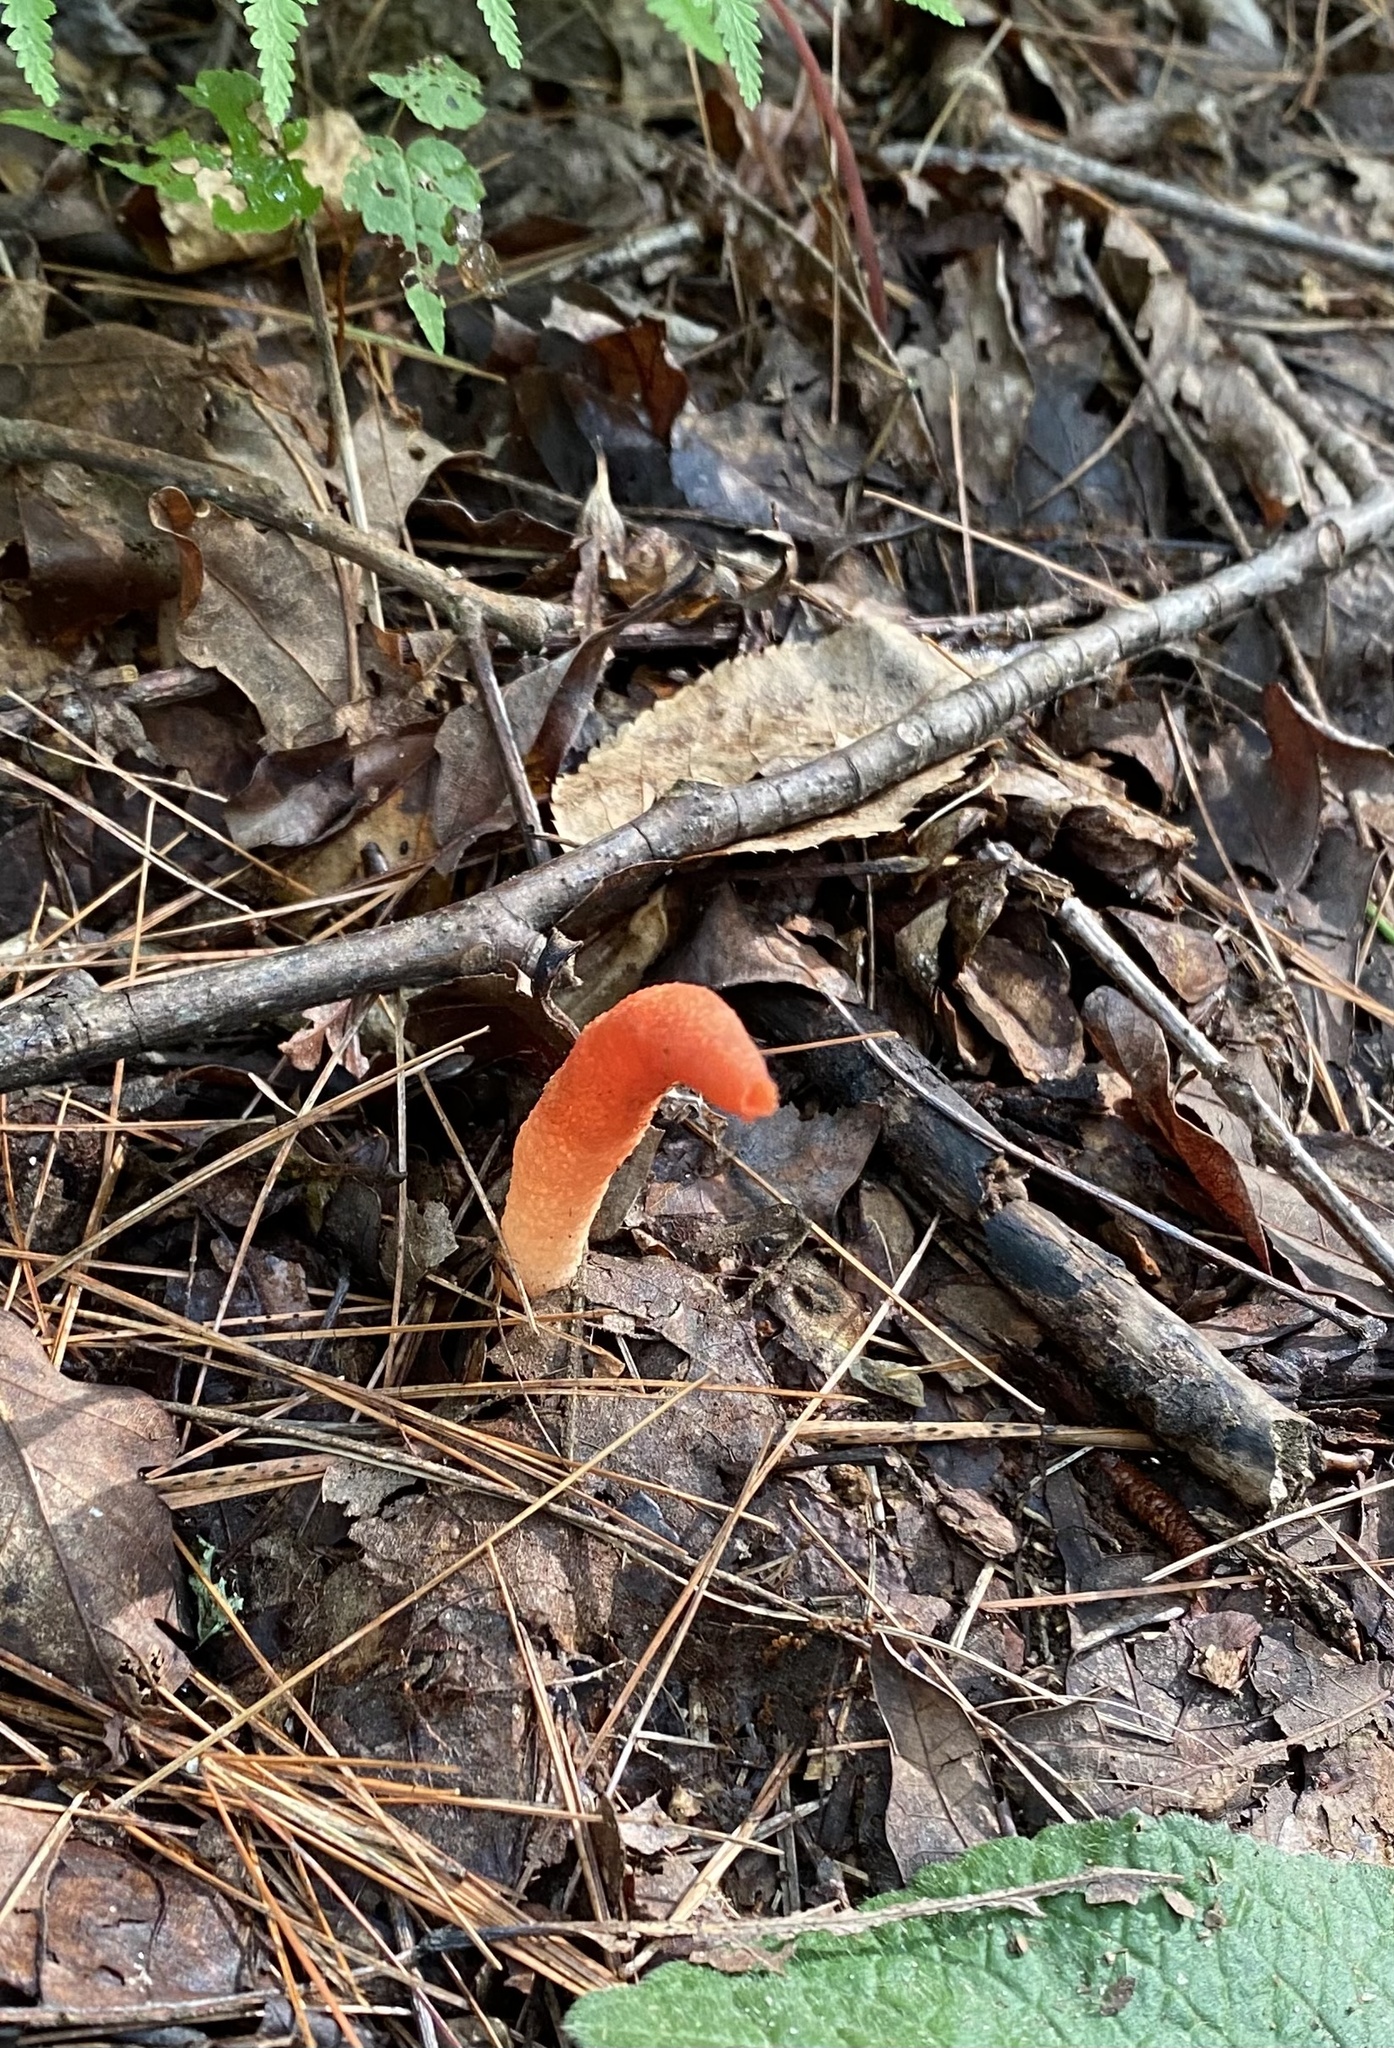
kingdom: Fungi
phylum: Basidiomycota
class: Agaricomycetes
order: Phallales
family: Phallaceae
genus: Mutinus
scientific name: Mutinus elegans
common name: Devil's dipstick
